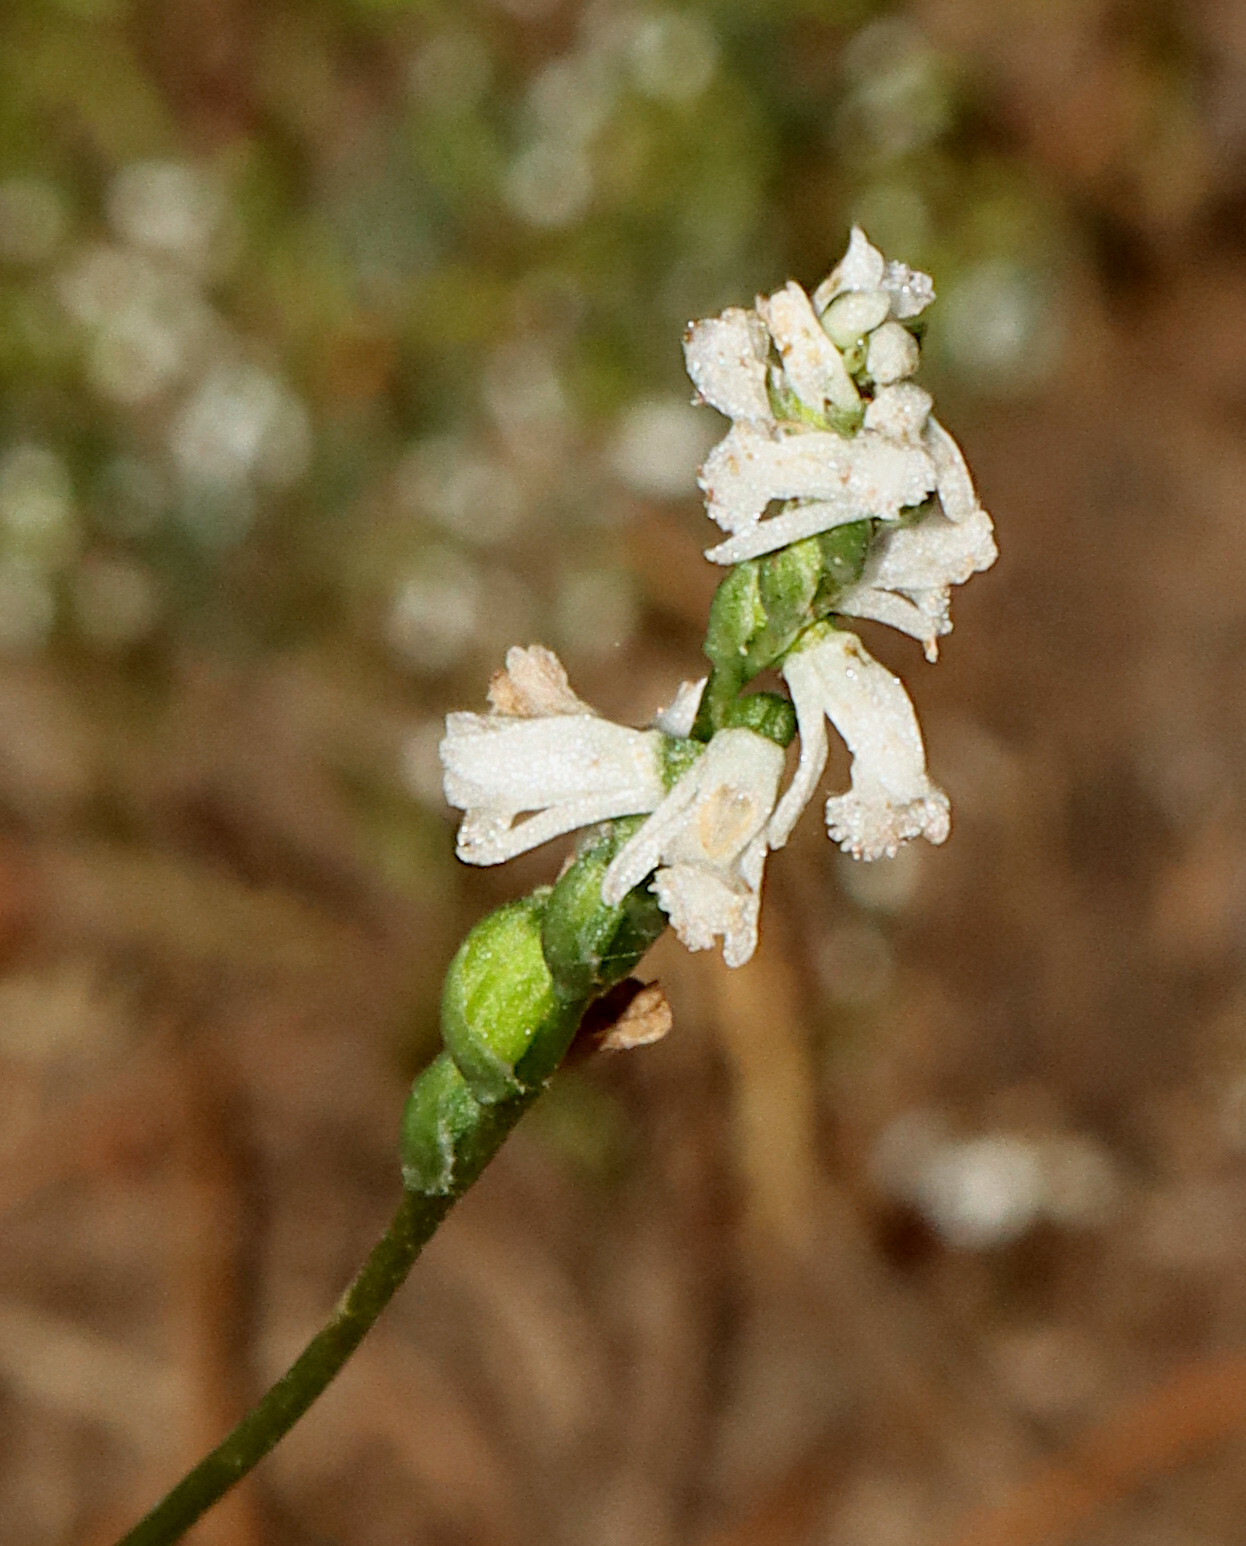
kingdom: Plantae
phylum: Tracheophyta
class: Liliopsida
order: Asparagales
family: Orchidaceae
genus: Spiranthes
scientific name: Spiranthes tuberosa
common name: Little ladies'-tresses
